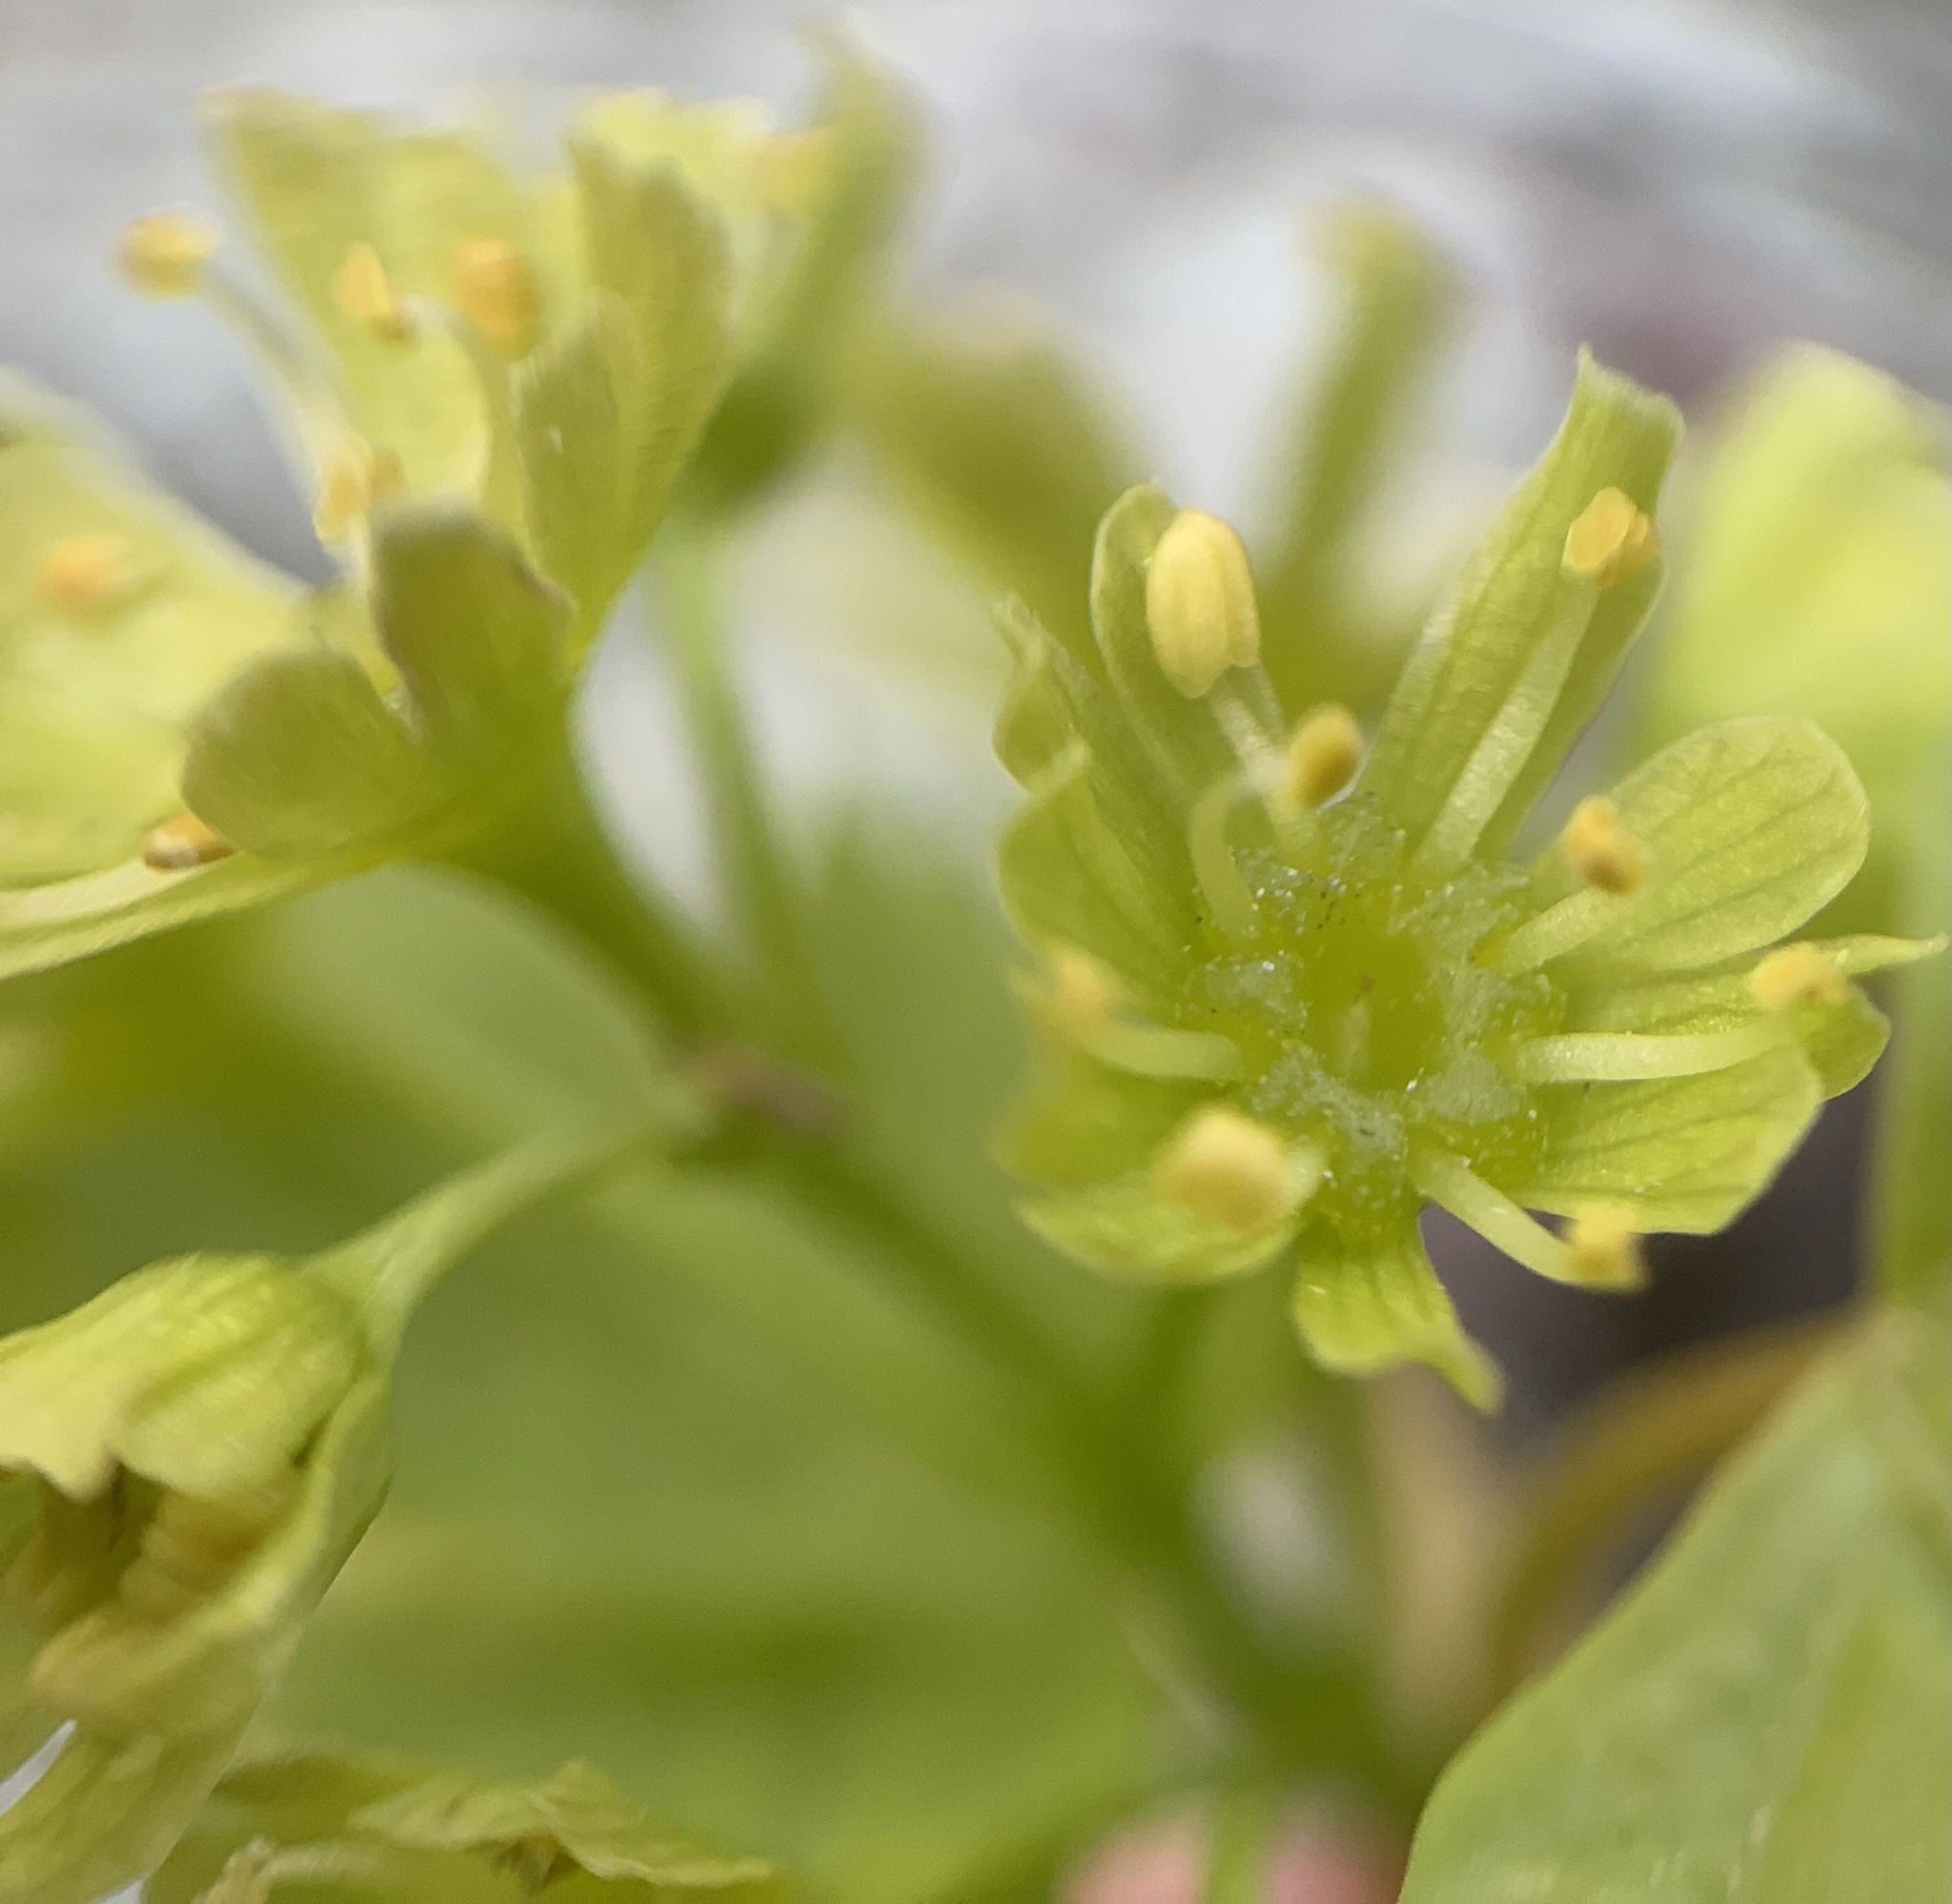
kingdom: Plantae
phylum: Tracheophyta
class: Magnoliopsida
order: Sapindales
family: Sapindaceae
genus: Acer
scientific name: Acer glabrum
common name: Rocky mountain maple
